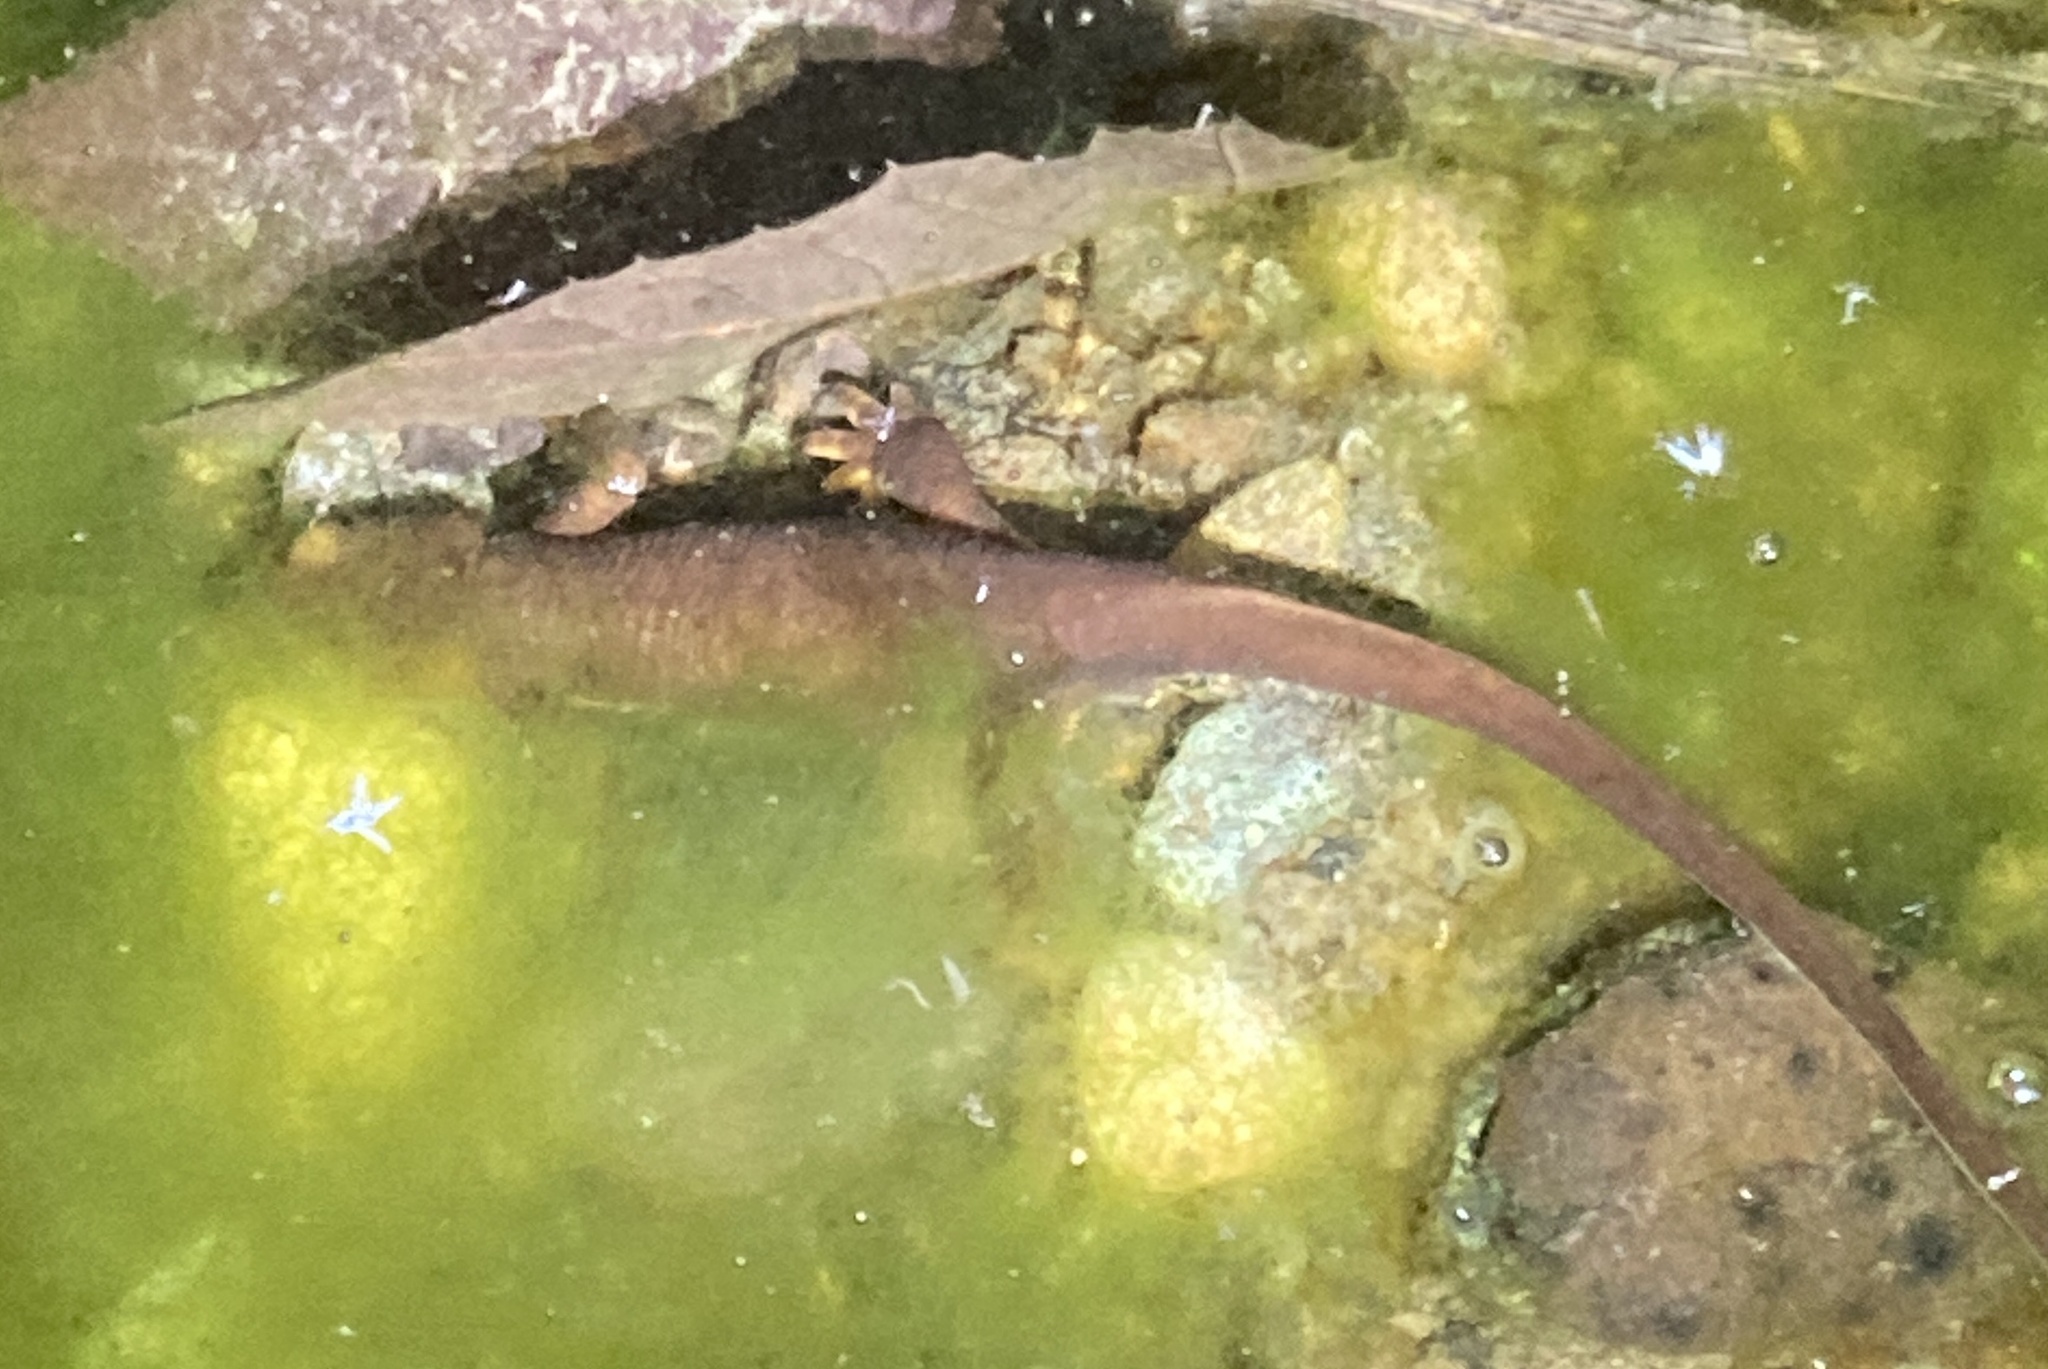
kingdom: Animalia
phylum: Chordata
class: Amphibia
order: Caudata
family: Salamandridae
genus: Taricha
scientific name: Taricha torosa
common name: California newt
